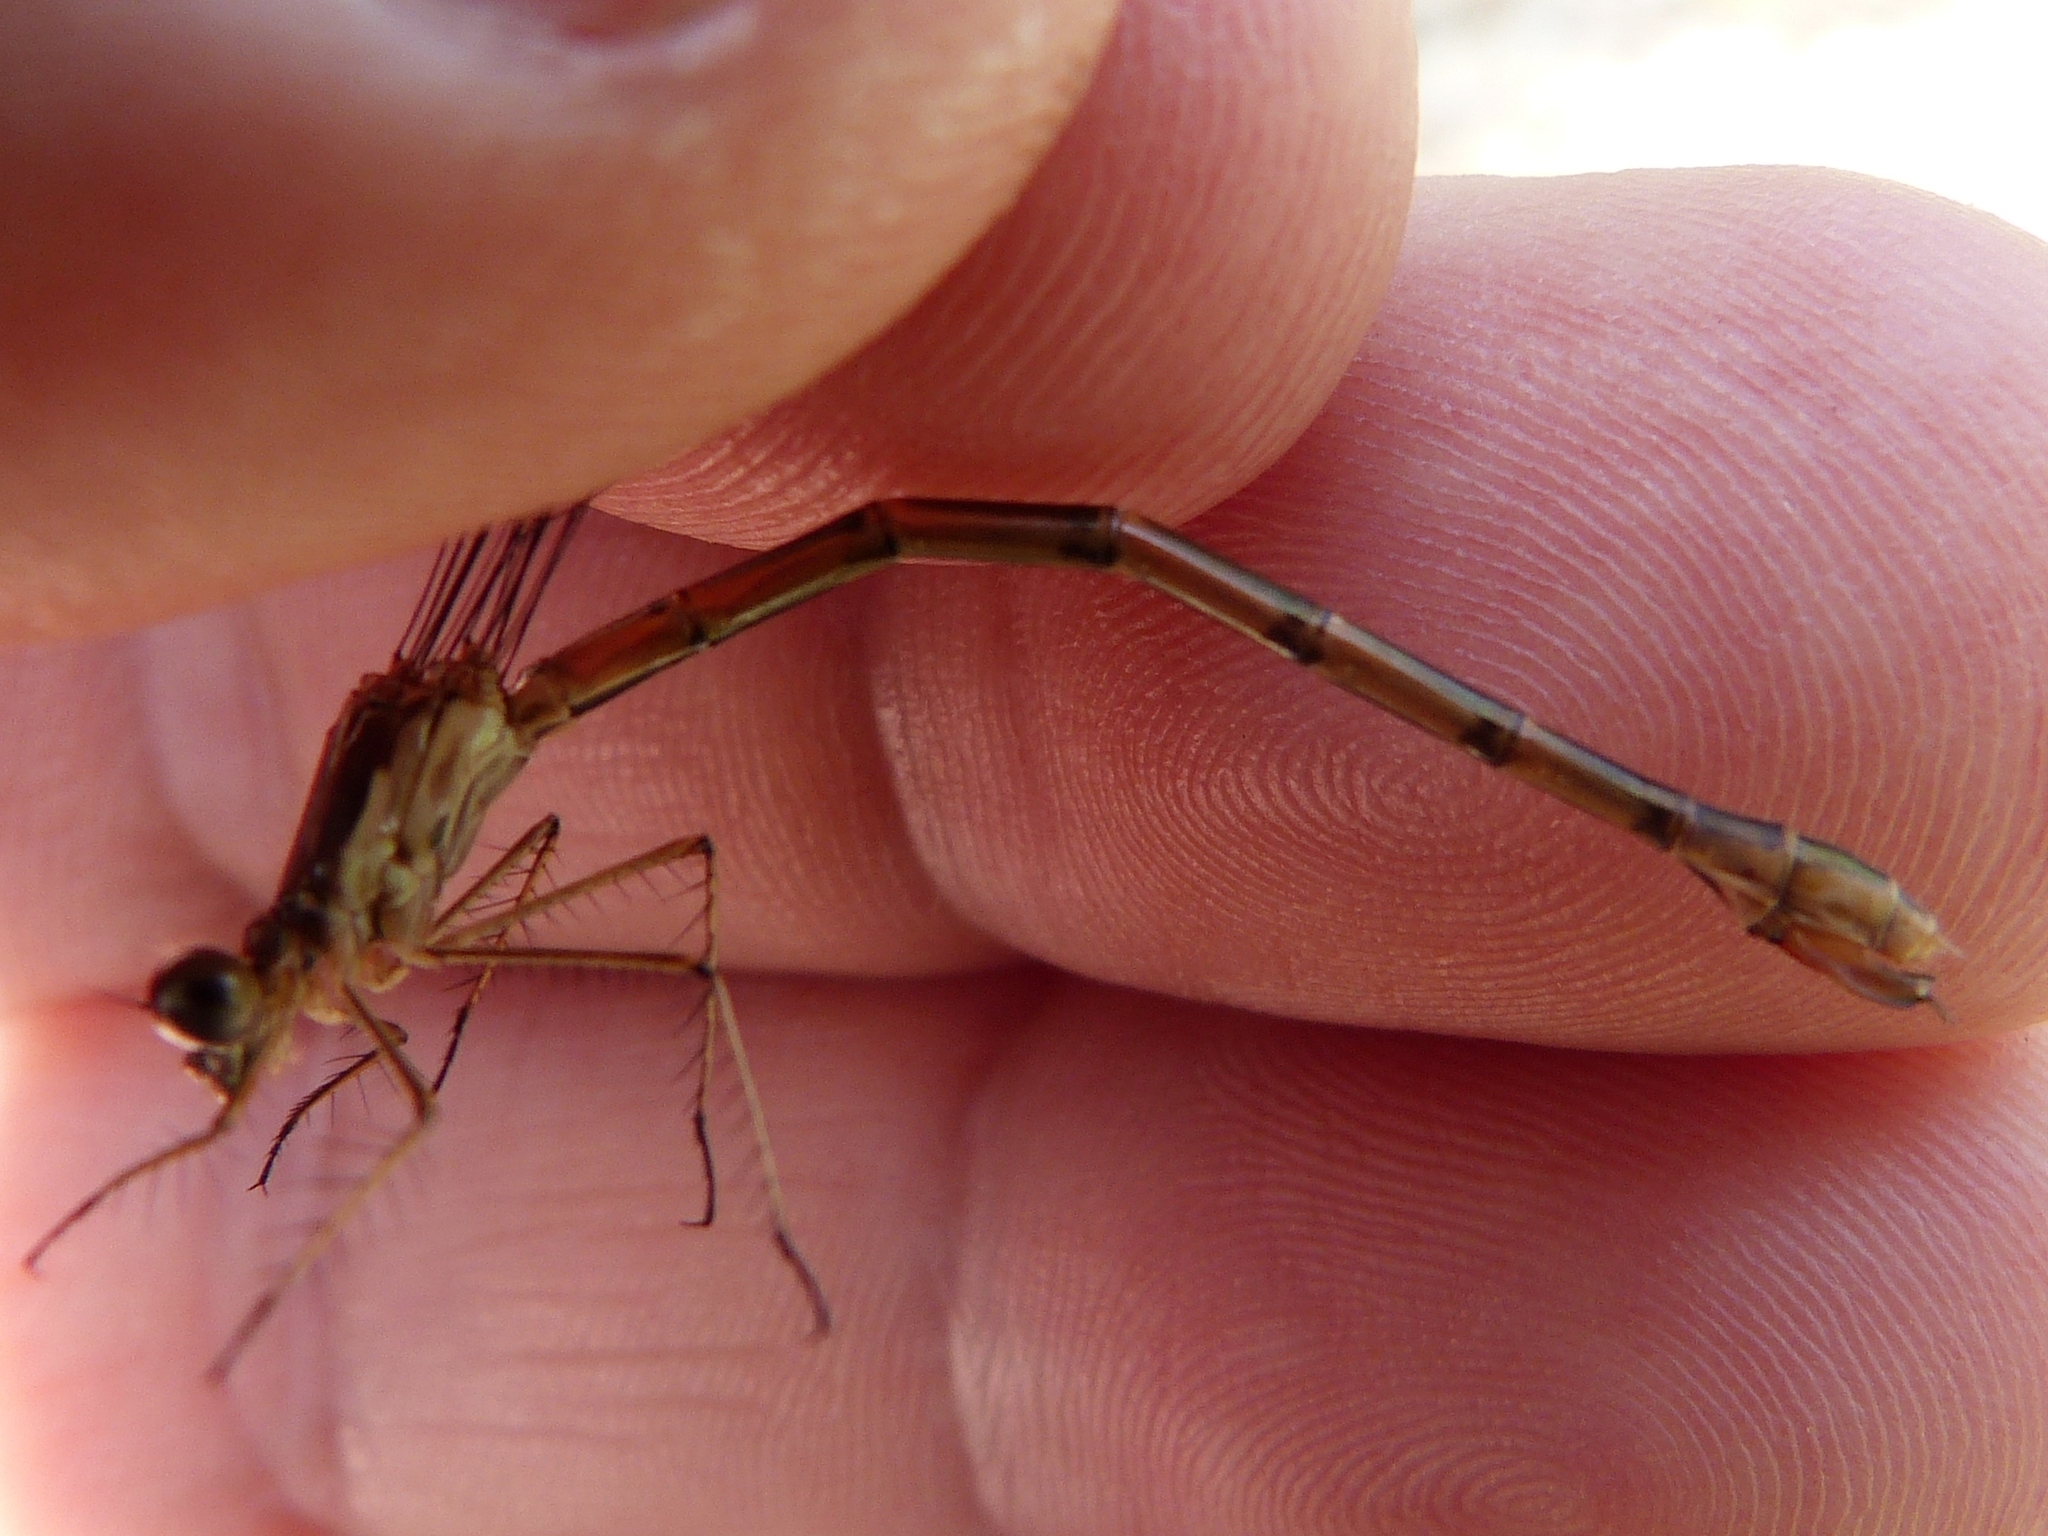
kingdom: Animalia
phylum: Arthropoda
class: Insecta
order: Odonata
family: Lestidae
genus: Lestes
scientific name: Lestes forcipatus
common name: Sweetflag spreadwing
